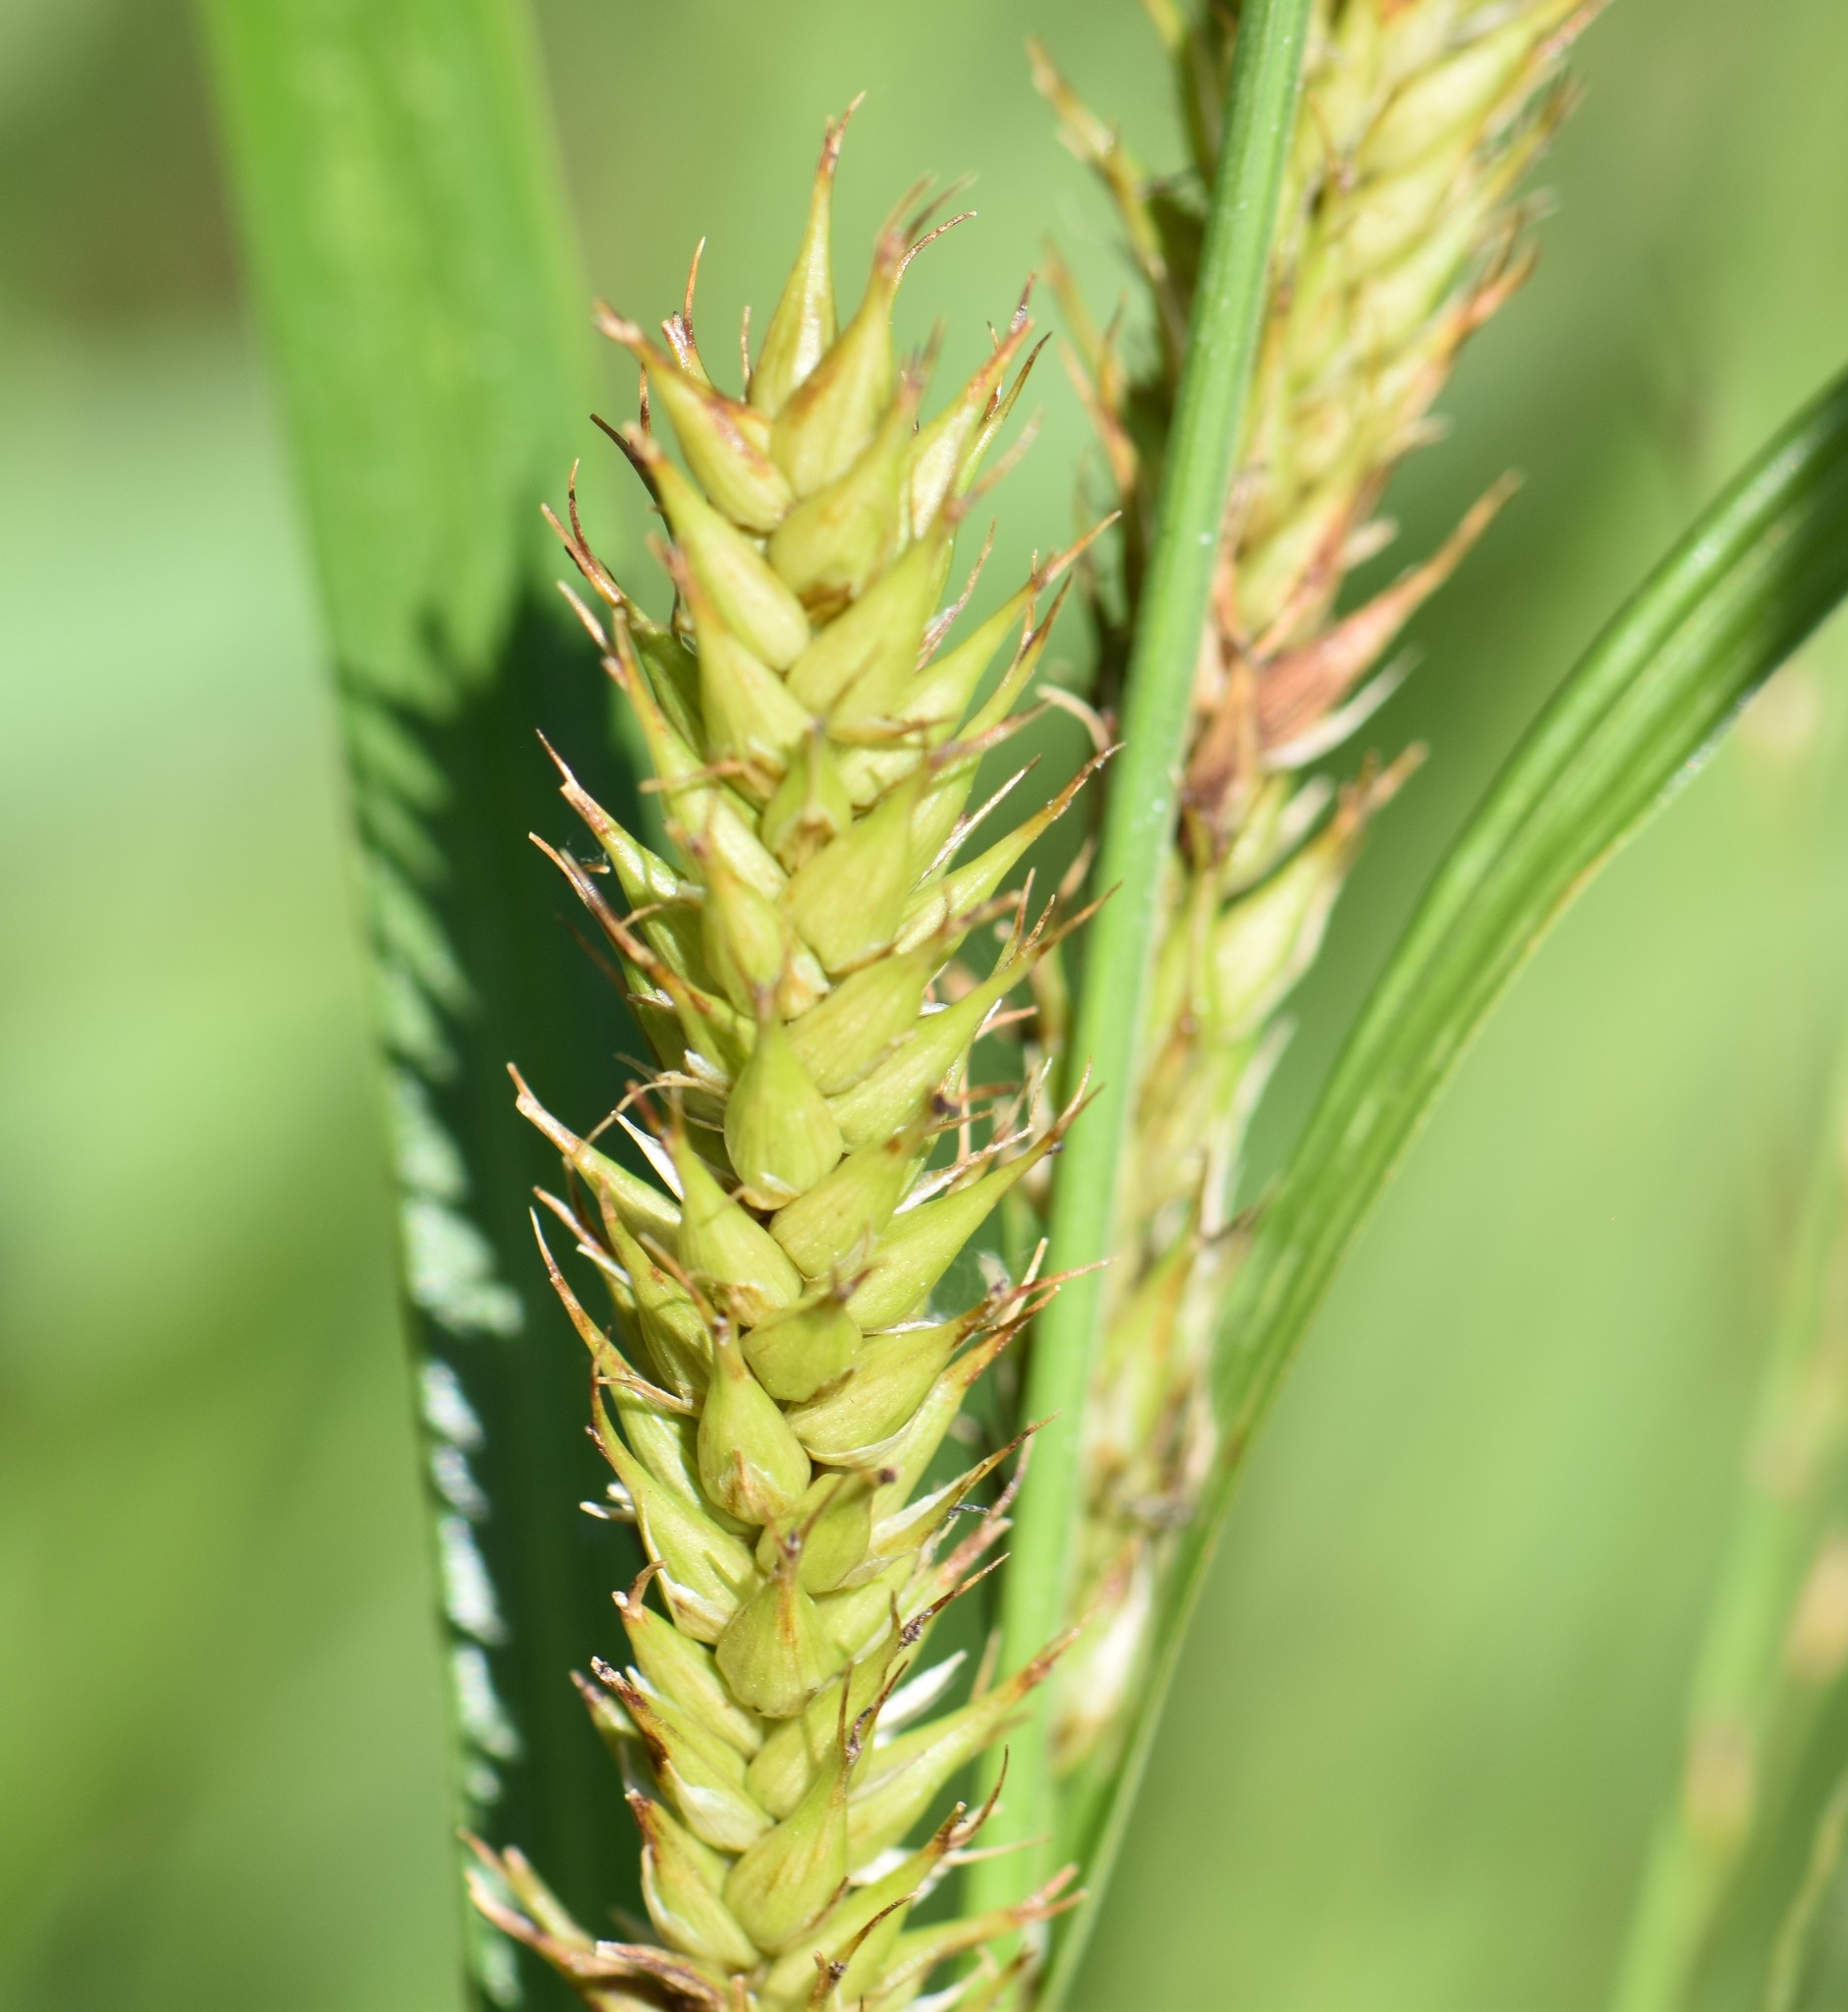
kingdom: Plantae
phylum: Tracheophyta
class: Liliopsida
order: Poales
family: Cyperaceae
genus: Carex
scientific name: Carex atherodes
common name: Wheat sedge
